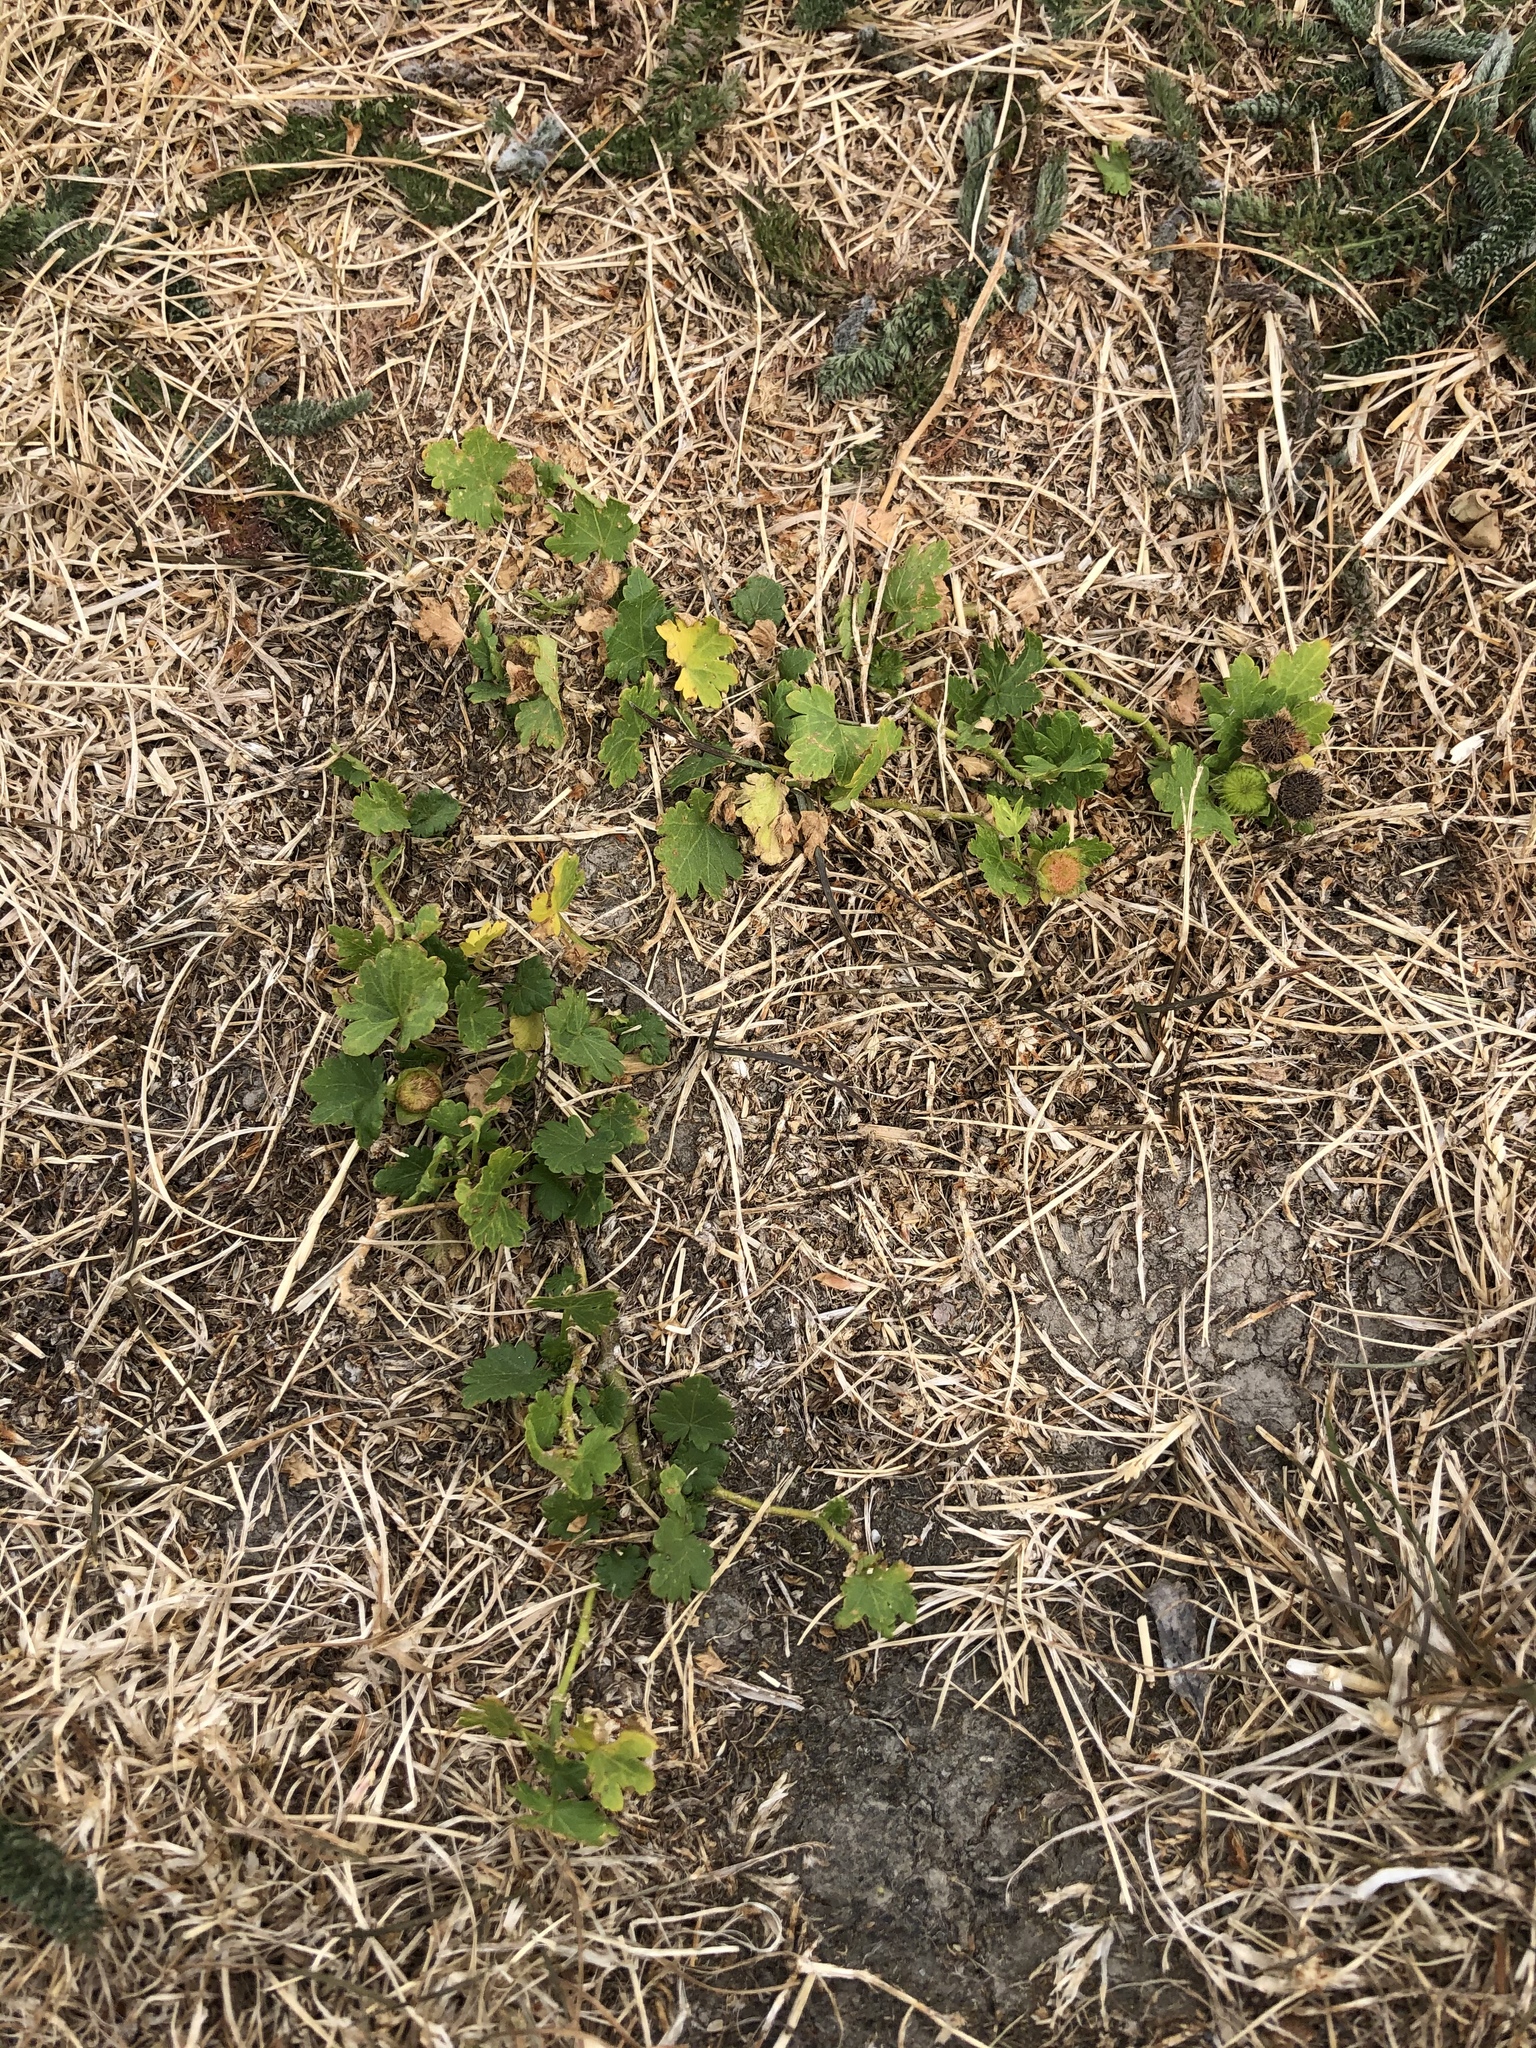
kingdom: Plantae
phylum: Tracheophyta
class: Magnoliopsida
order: Malvales
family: Malvaceae
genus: Modiola
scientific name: Modiola caroliniana
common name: Carolina bristlemallow
